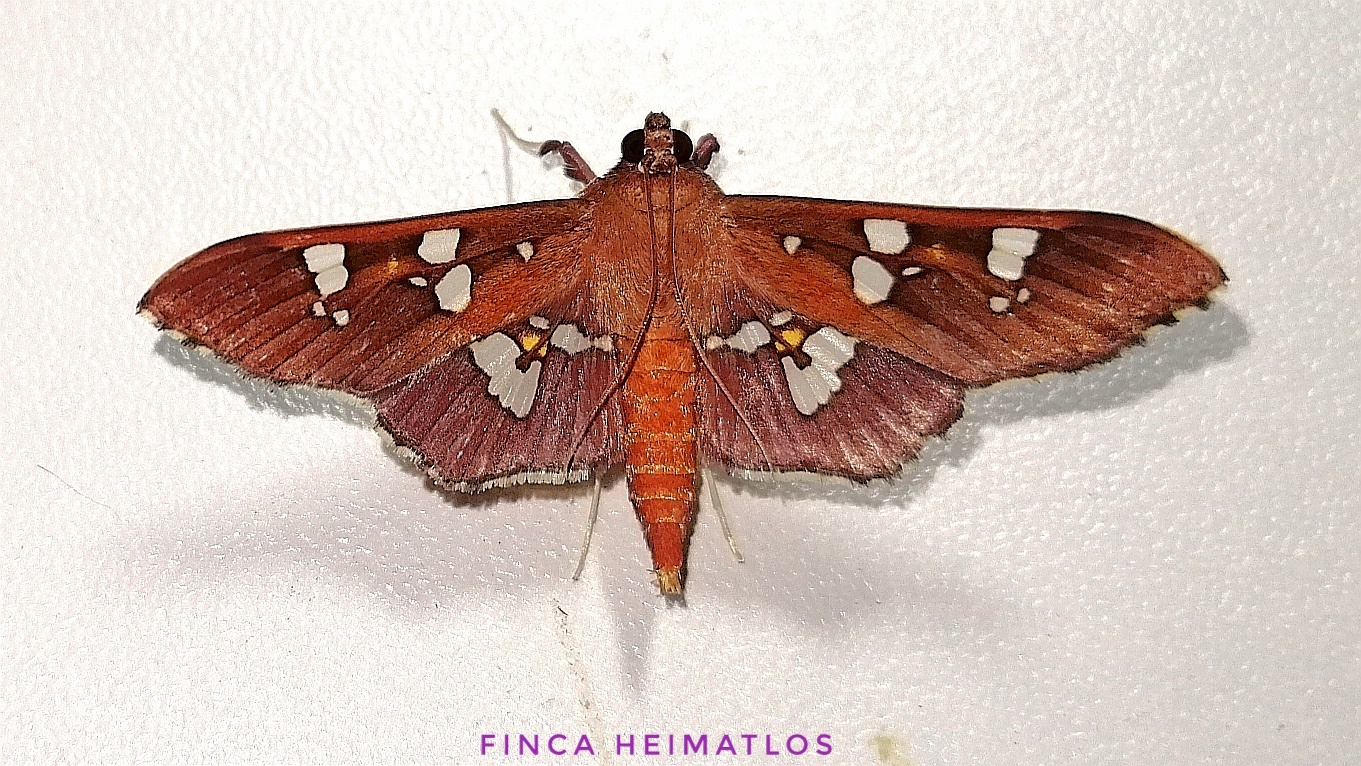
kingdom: Animalia
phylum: Arthropoda
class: Insecta
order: Lepidoptera
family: Crambidae
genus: Phostria
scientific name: Phostria temira
